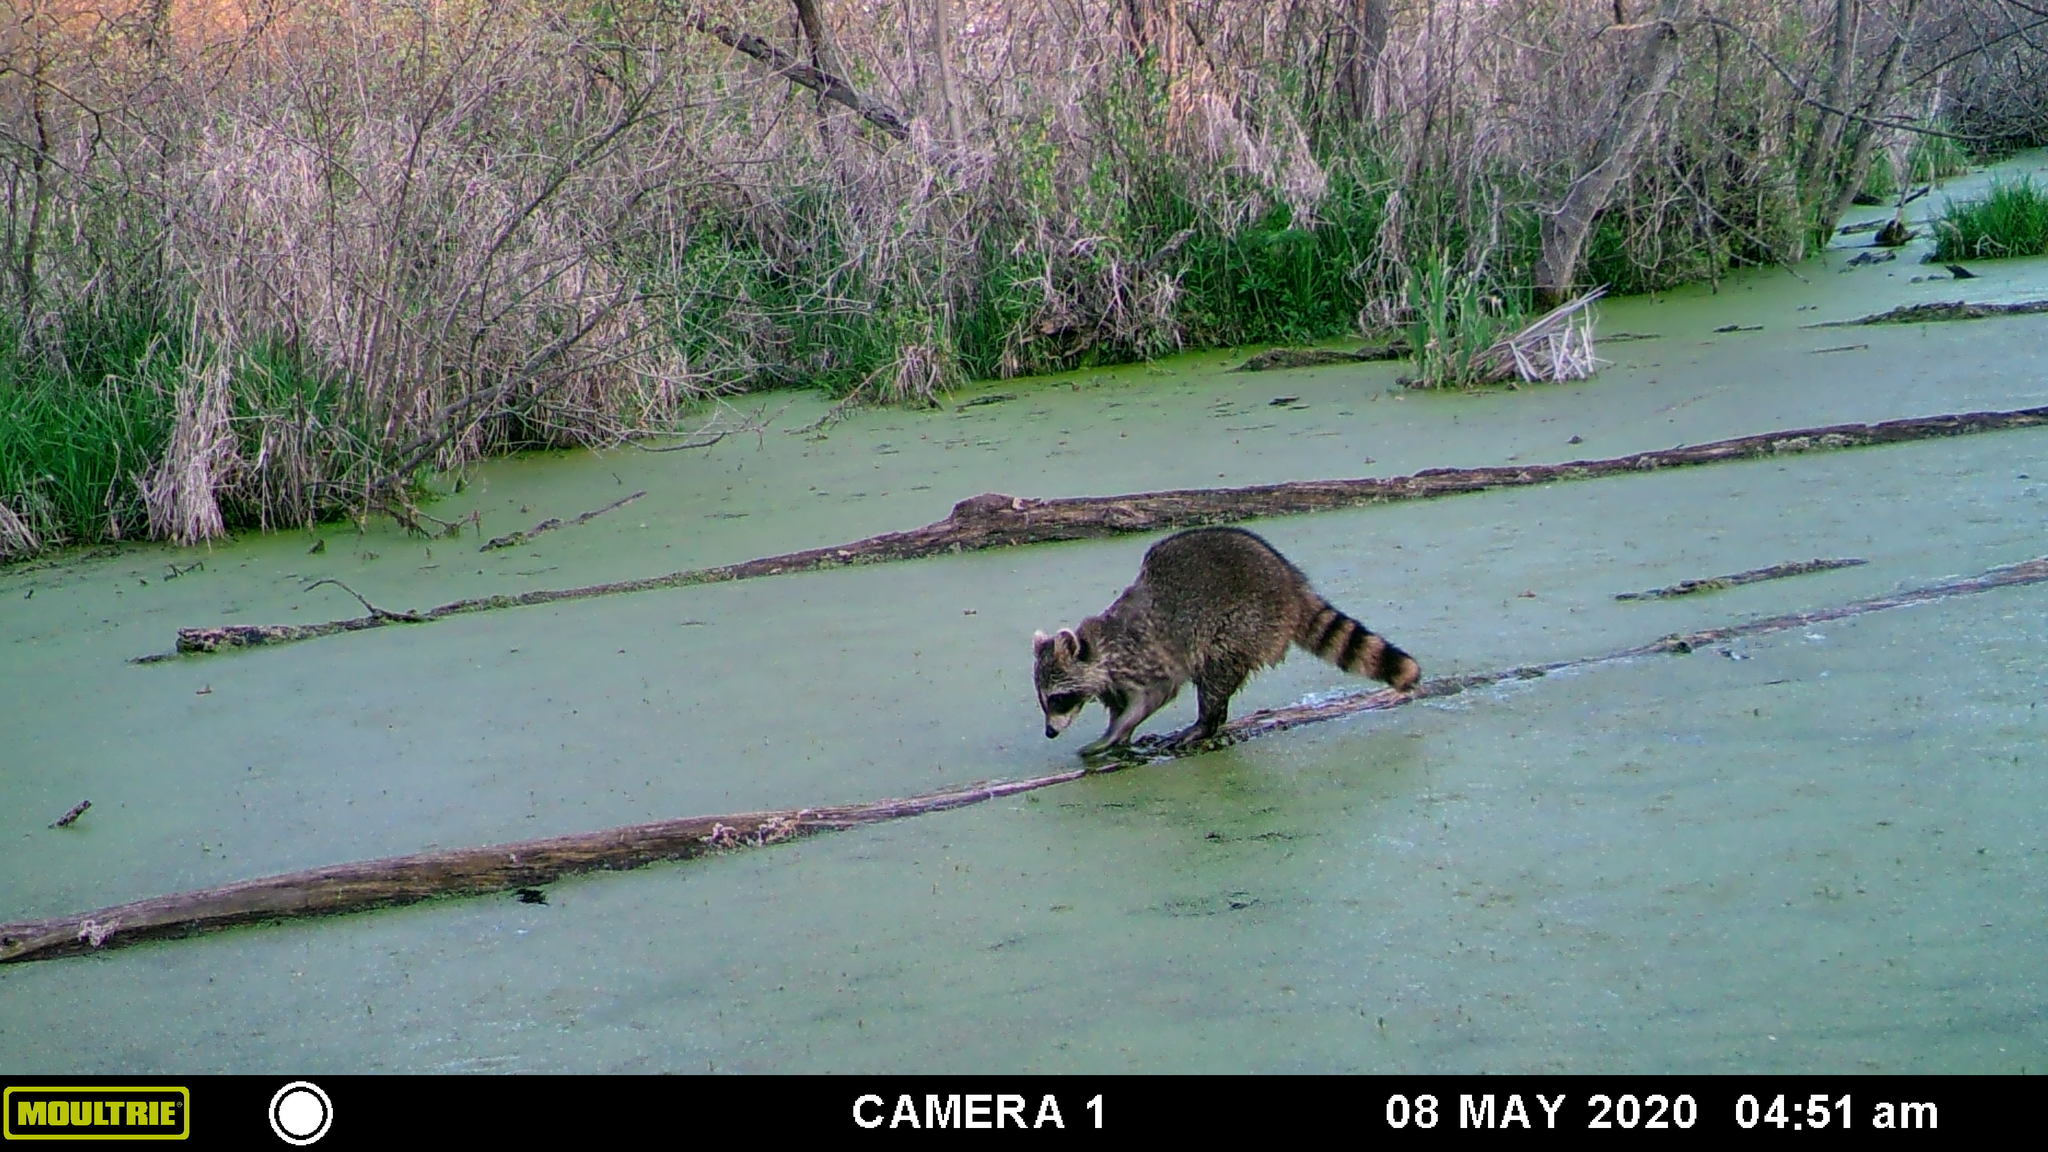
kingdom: Animalia
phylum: Chordata
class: Mammalia
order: Carnivora
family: Procyonidae
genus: Procyon
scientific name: Procyon lotor
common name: Raccoon
